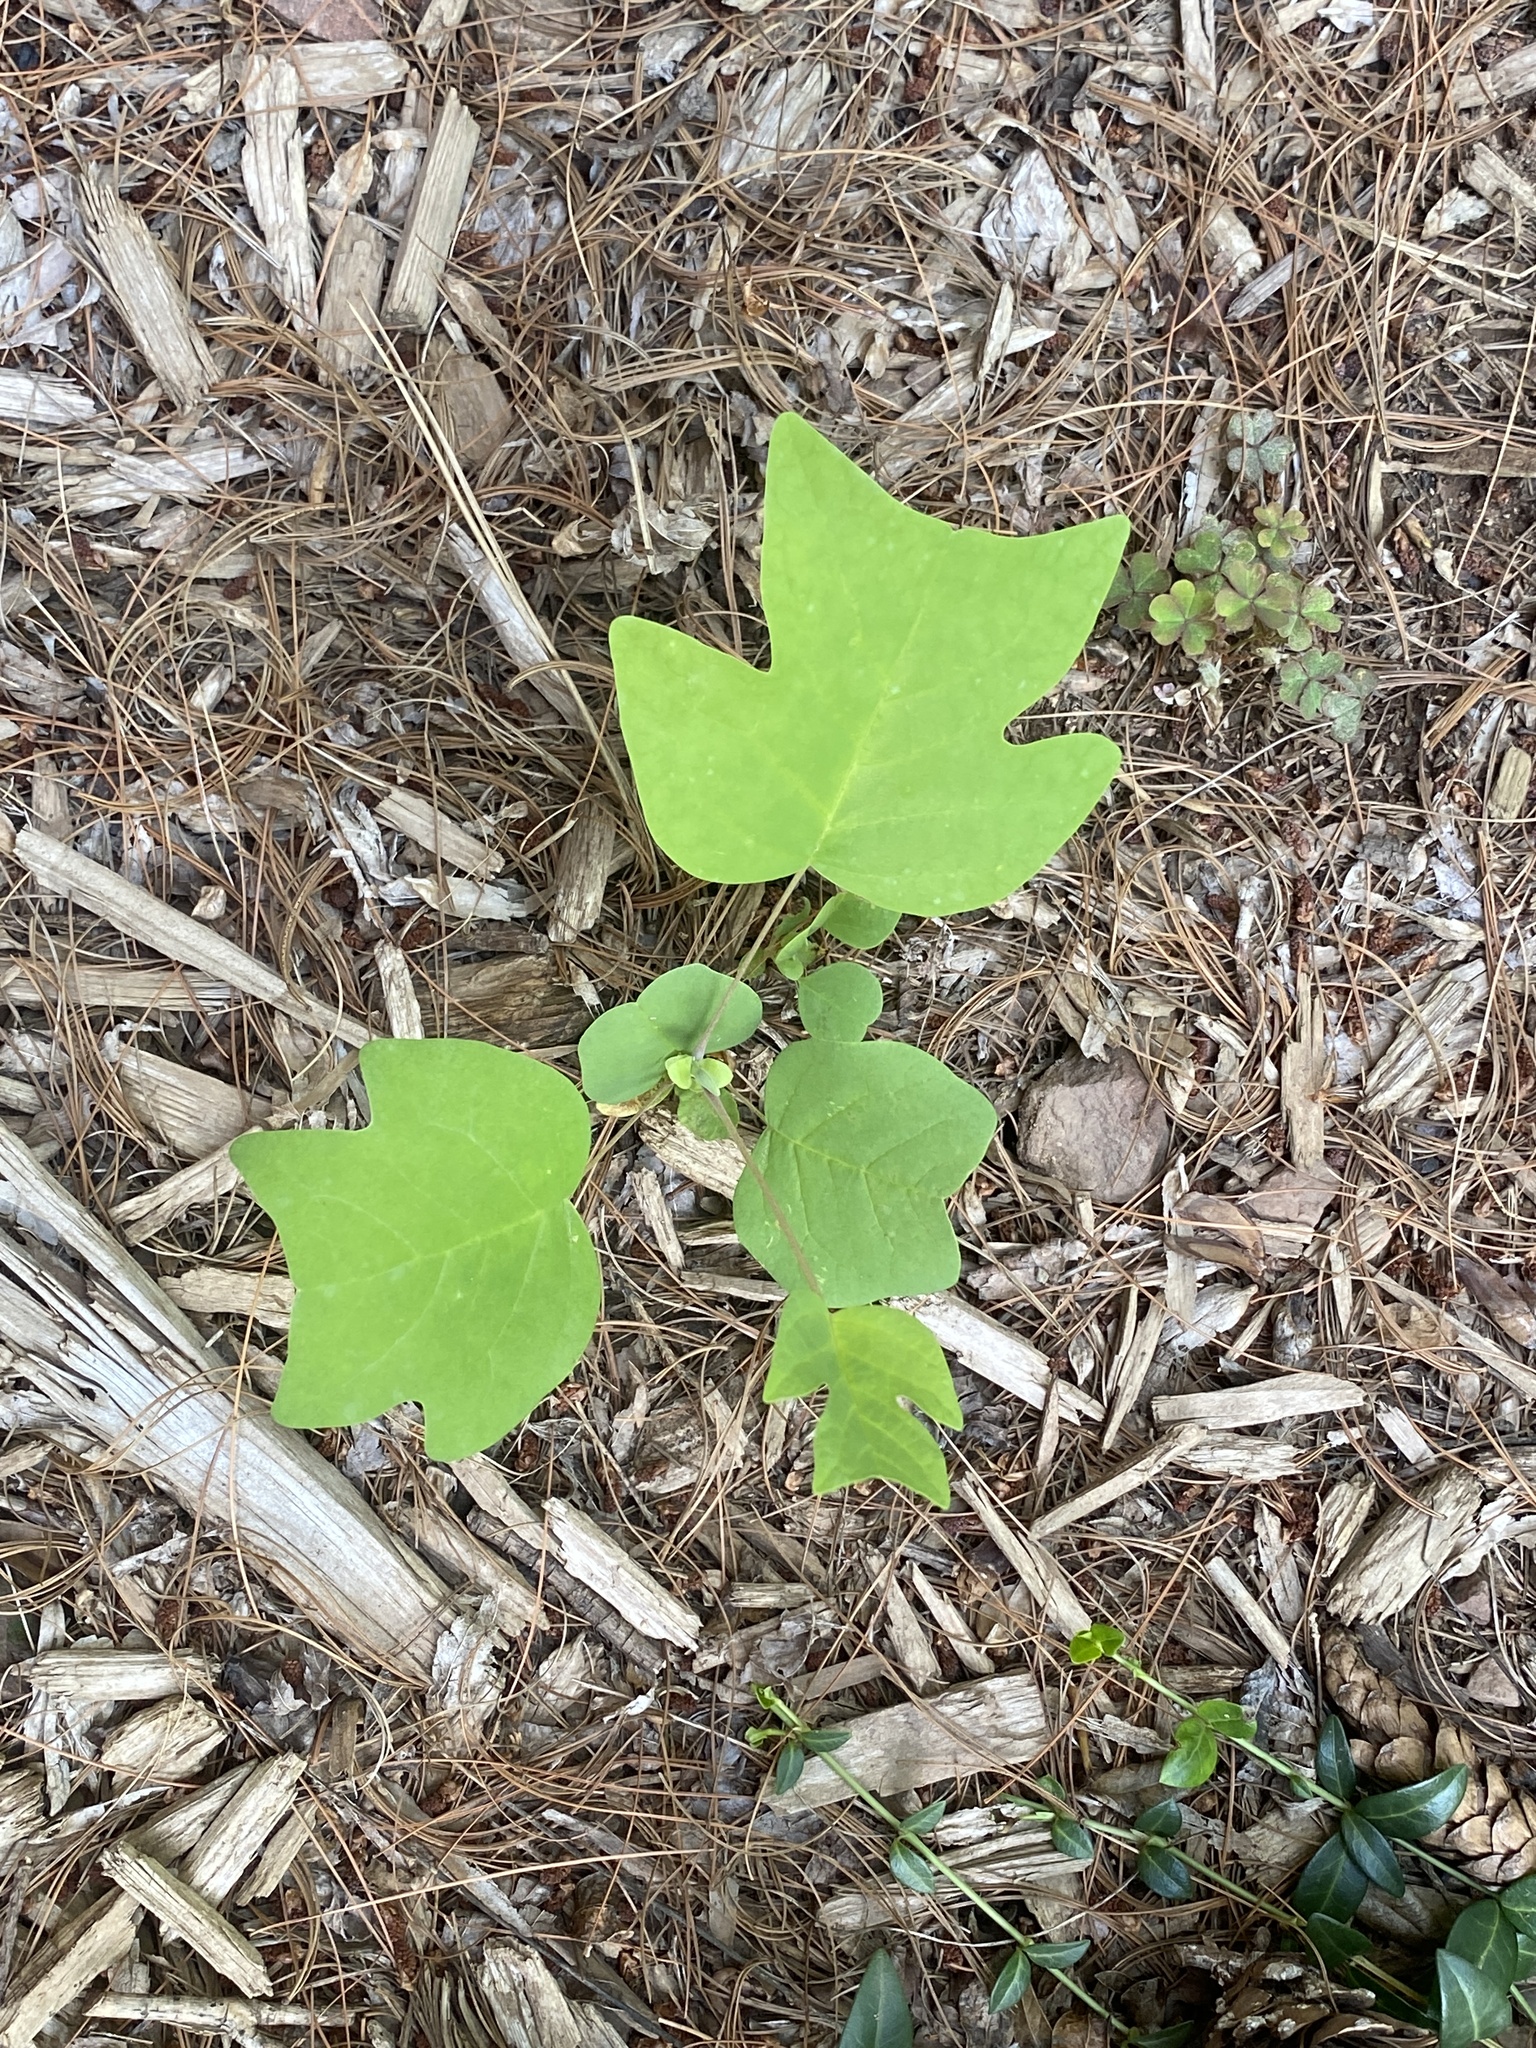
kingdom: Plantae
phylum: Tracheophyta
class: Magnoliopsida
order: Magnoliales
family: Magnoliaceae
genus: Liriodendron
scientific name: Liriodendron tulipifera
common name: Tulip tree
